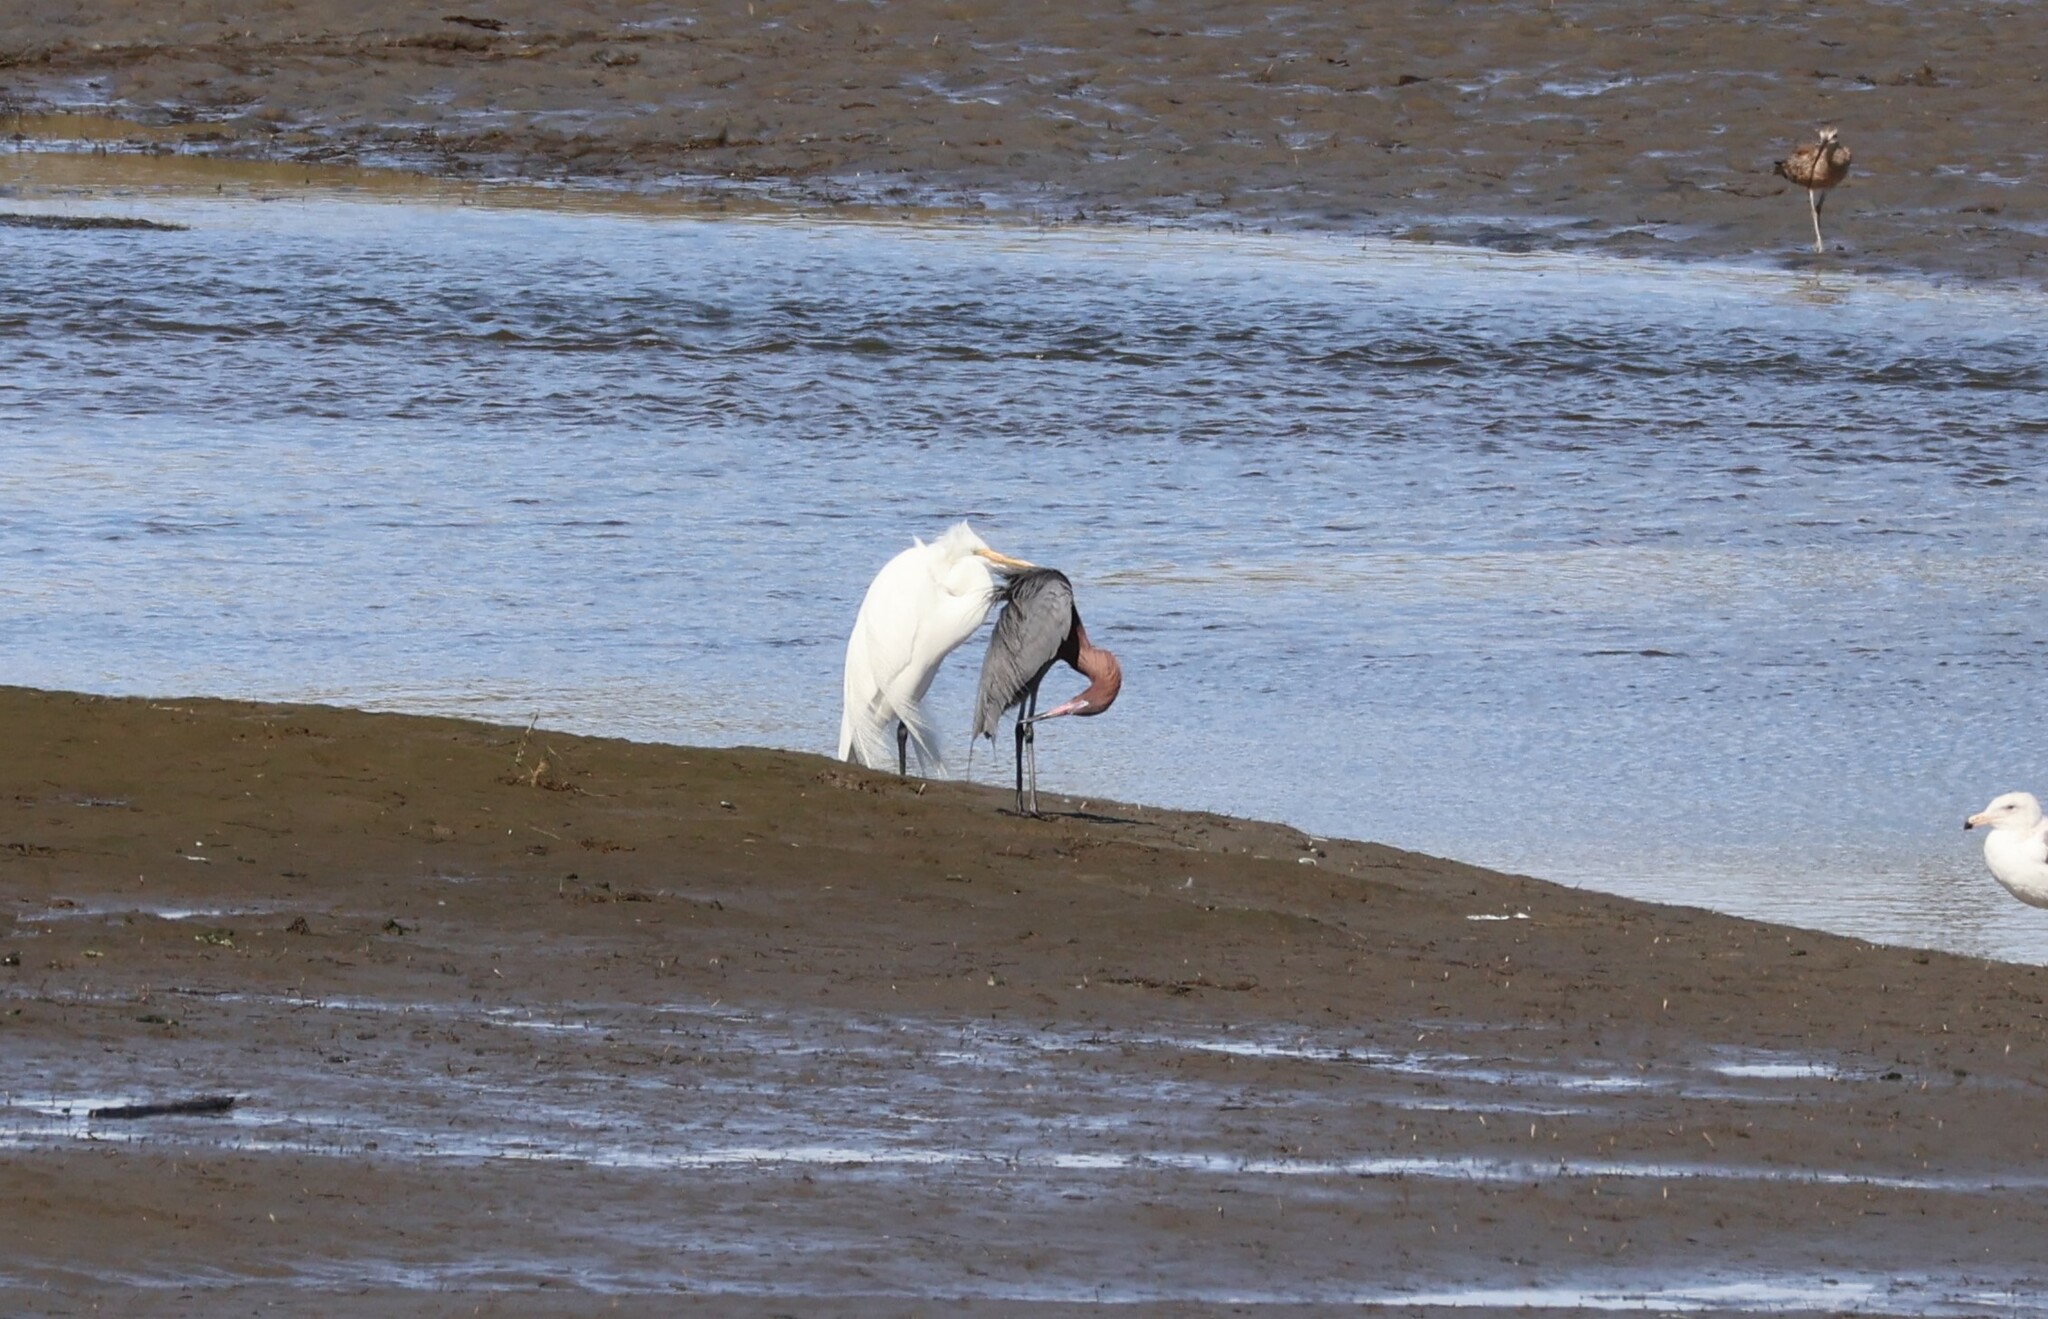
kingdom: Animalia
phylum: Chordata
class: Aves
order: Pelecaniformes
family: Ardeidae
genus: Egretta
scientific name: Egretta rufescens
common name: Reddish egret
